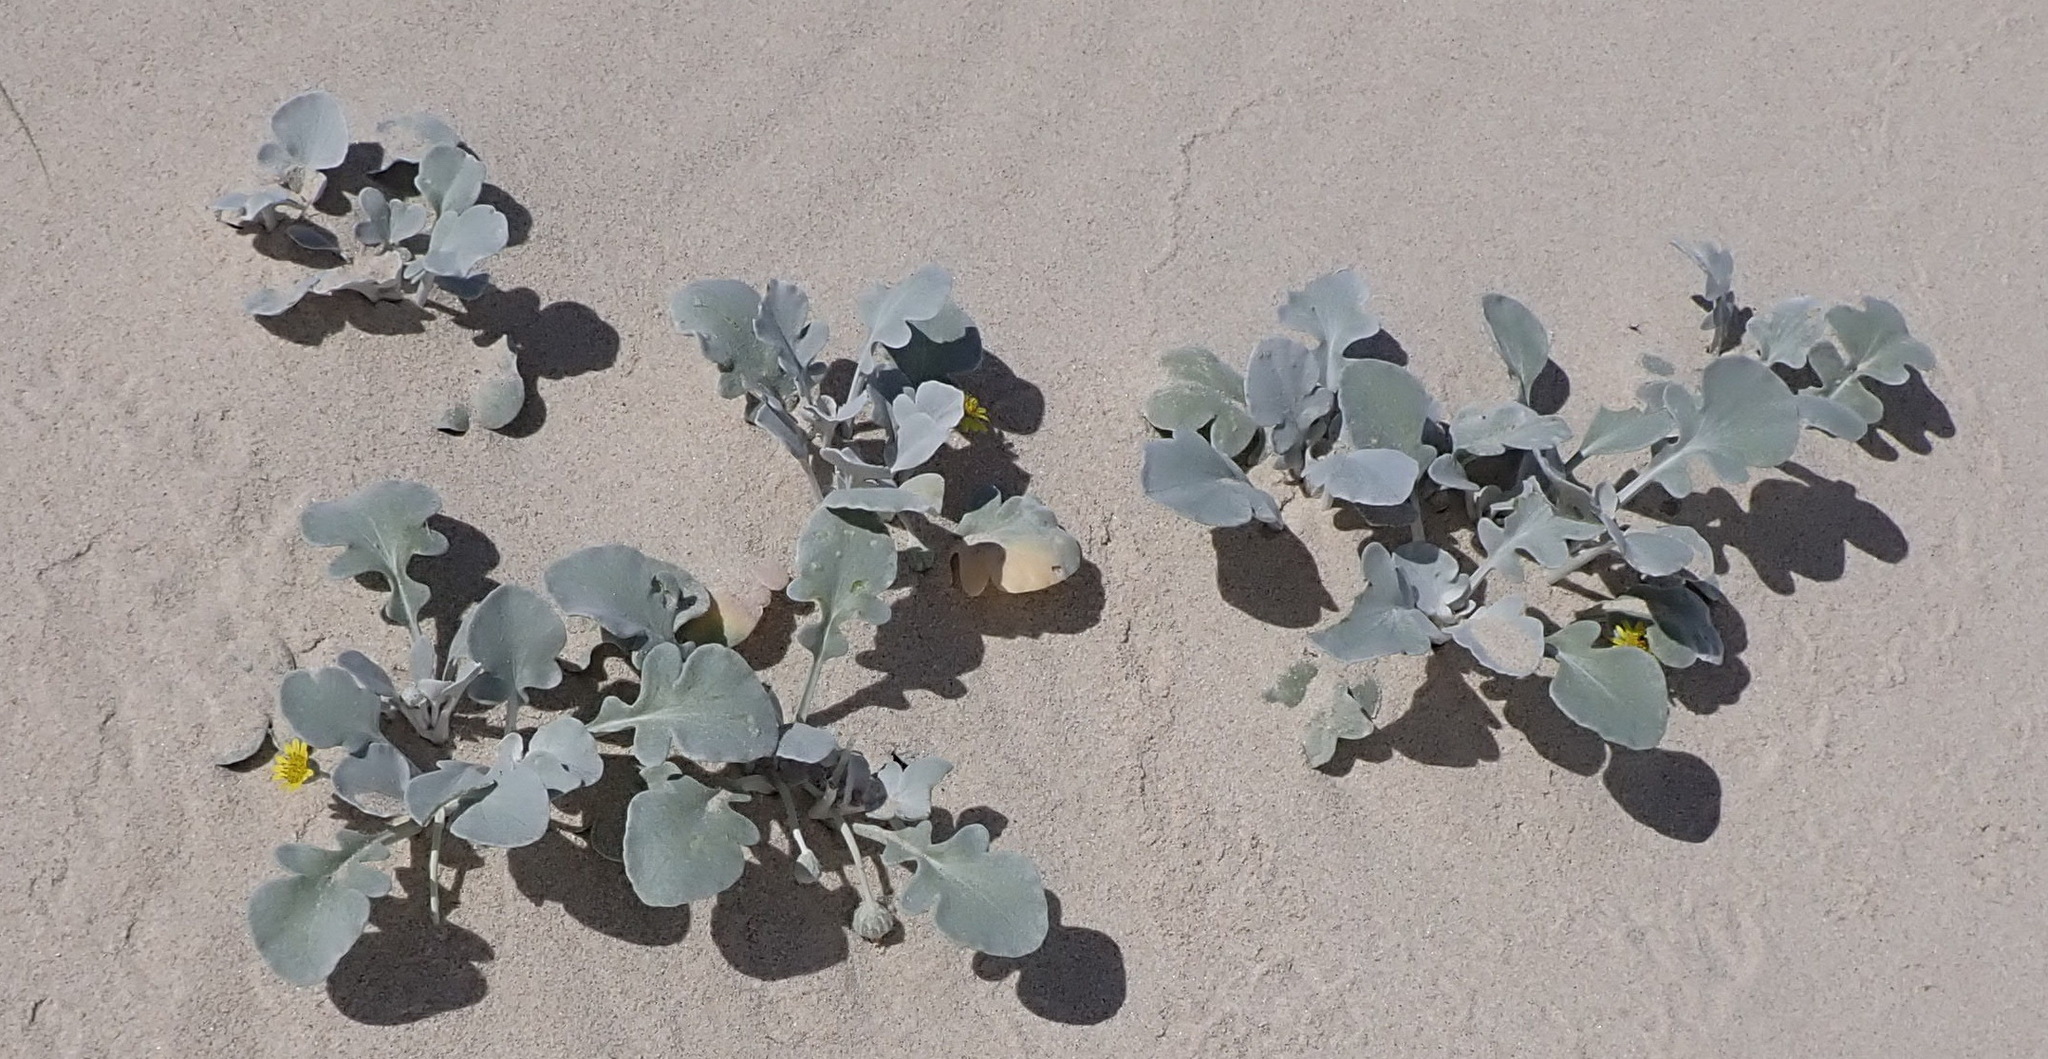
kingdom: Plantae
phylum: Tracheophyta
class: Magnoliopsida
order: Asterales
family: Asteraceae
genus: Arctotheca
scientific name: Arctotheca populifolia
